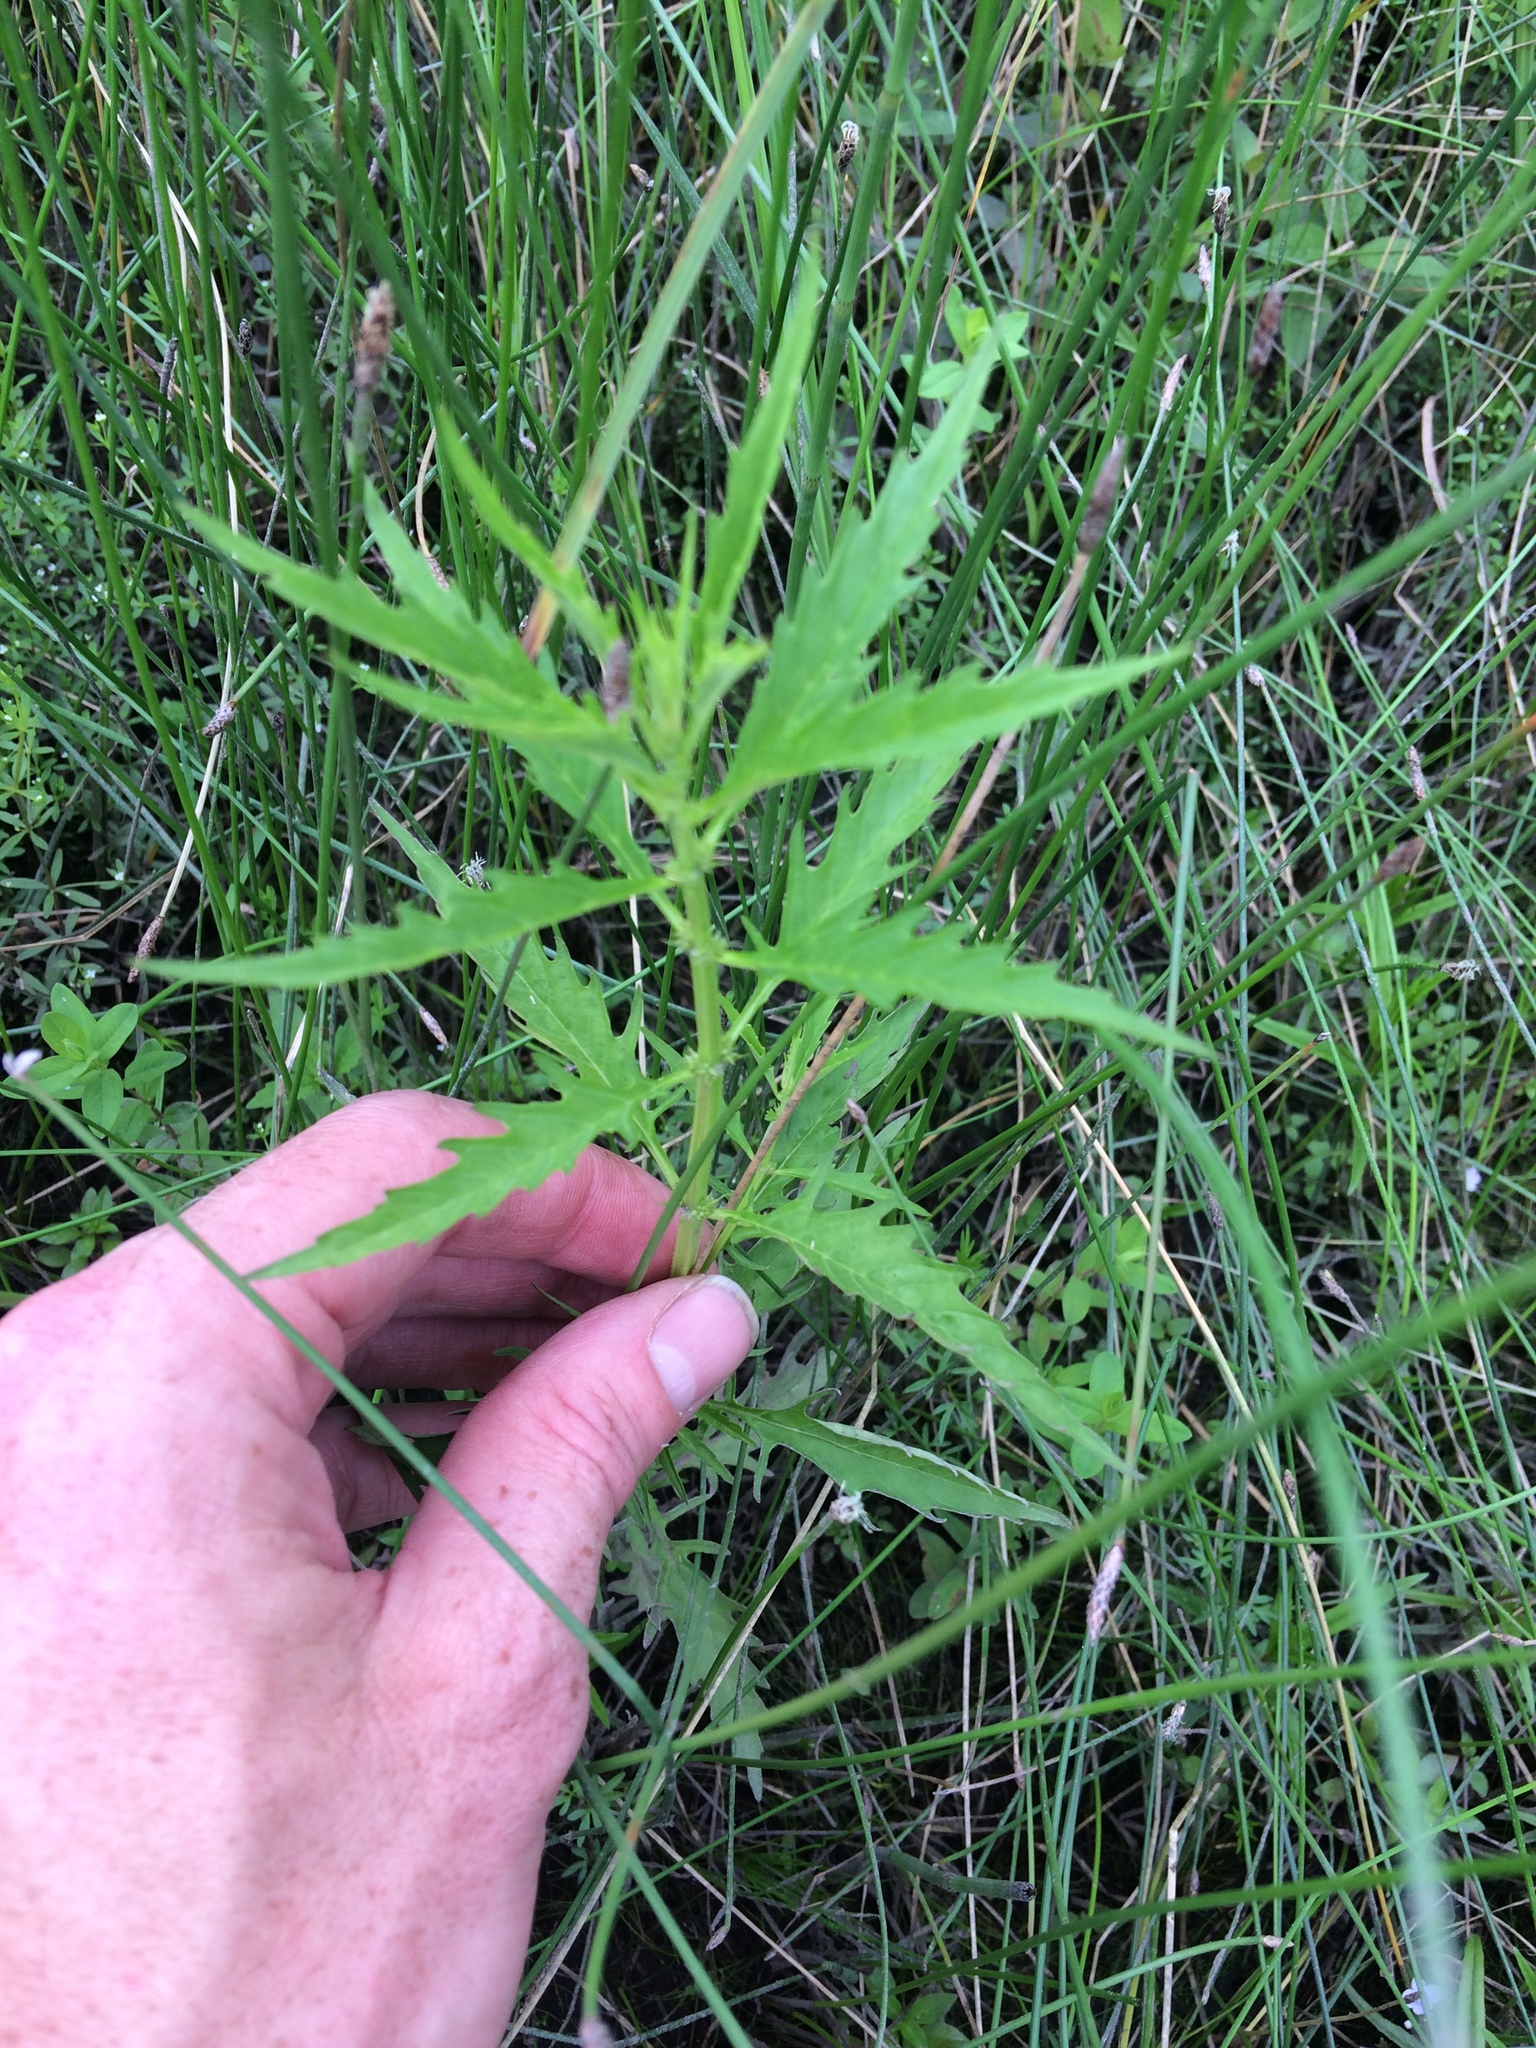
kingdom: Plantae
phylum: Tracheophyta
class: Magnoliopsida
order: Lamiales
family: Lamiaceae
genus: Lycopus
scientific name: Lycopus americanus
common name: American bugleweed
